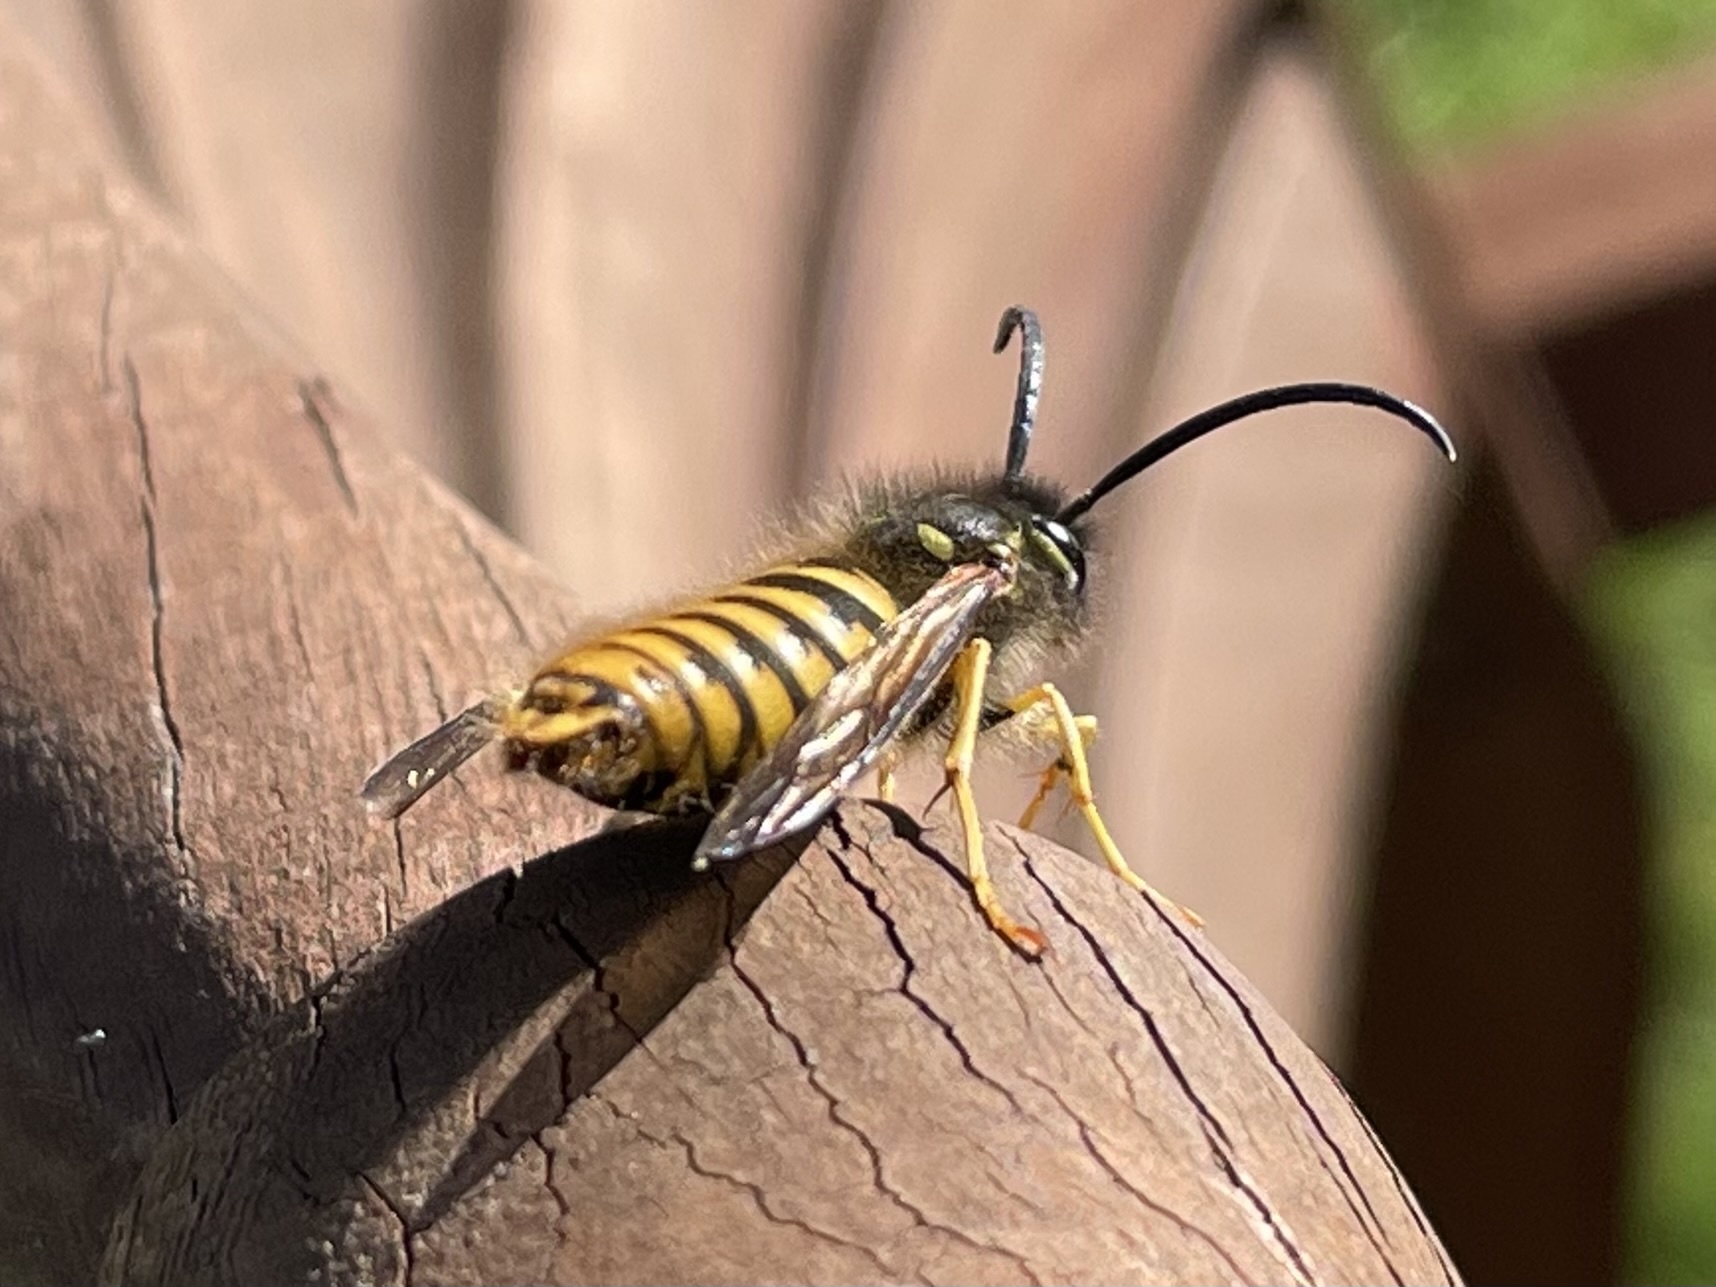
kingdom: Animalia
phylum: Arthropoda
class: Insecta
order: Hymenoptera
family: Vespidae
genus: Vespula
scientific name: Vespula vulgaris
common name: Common wasp
